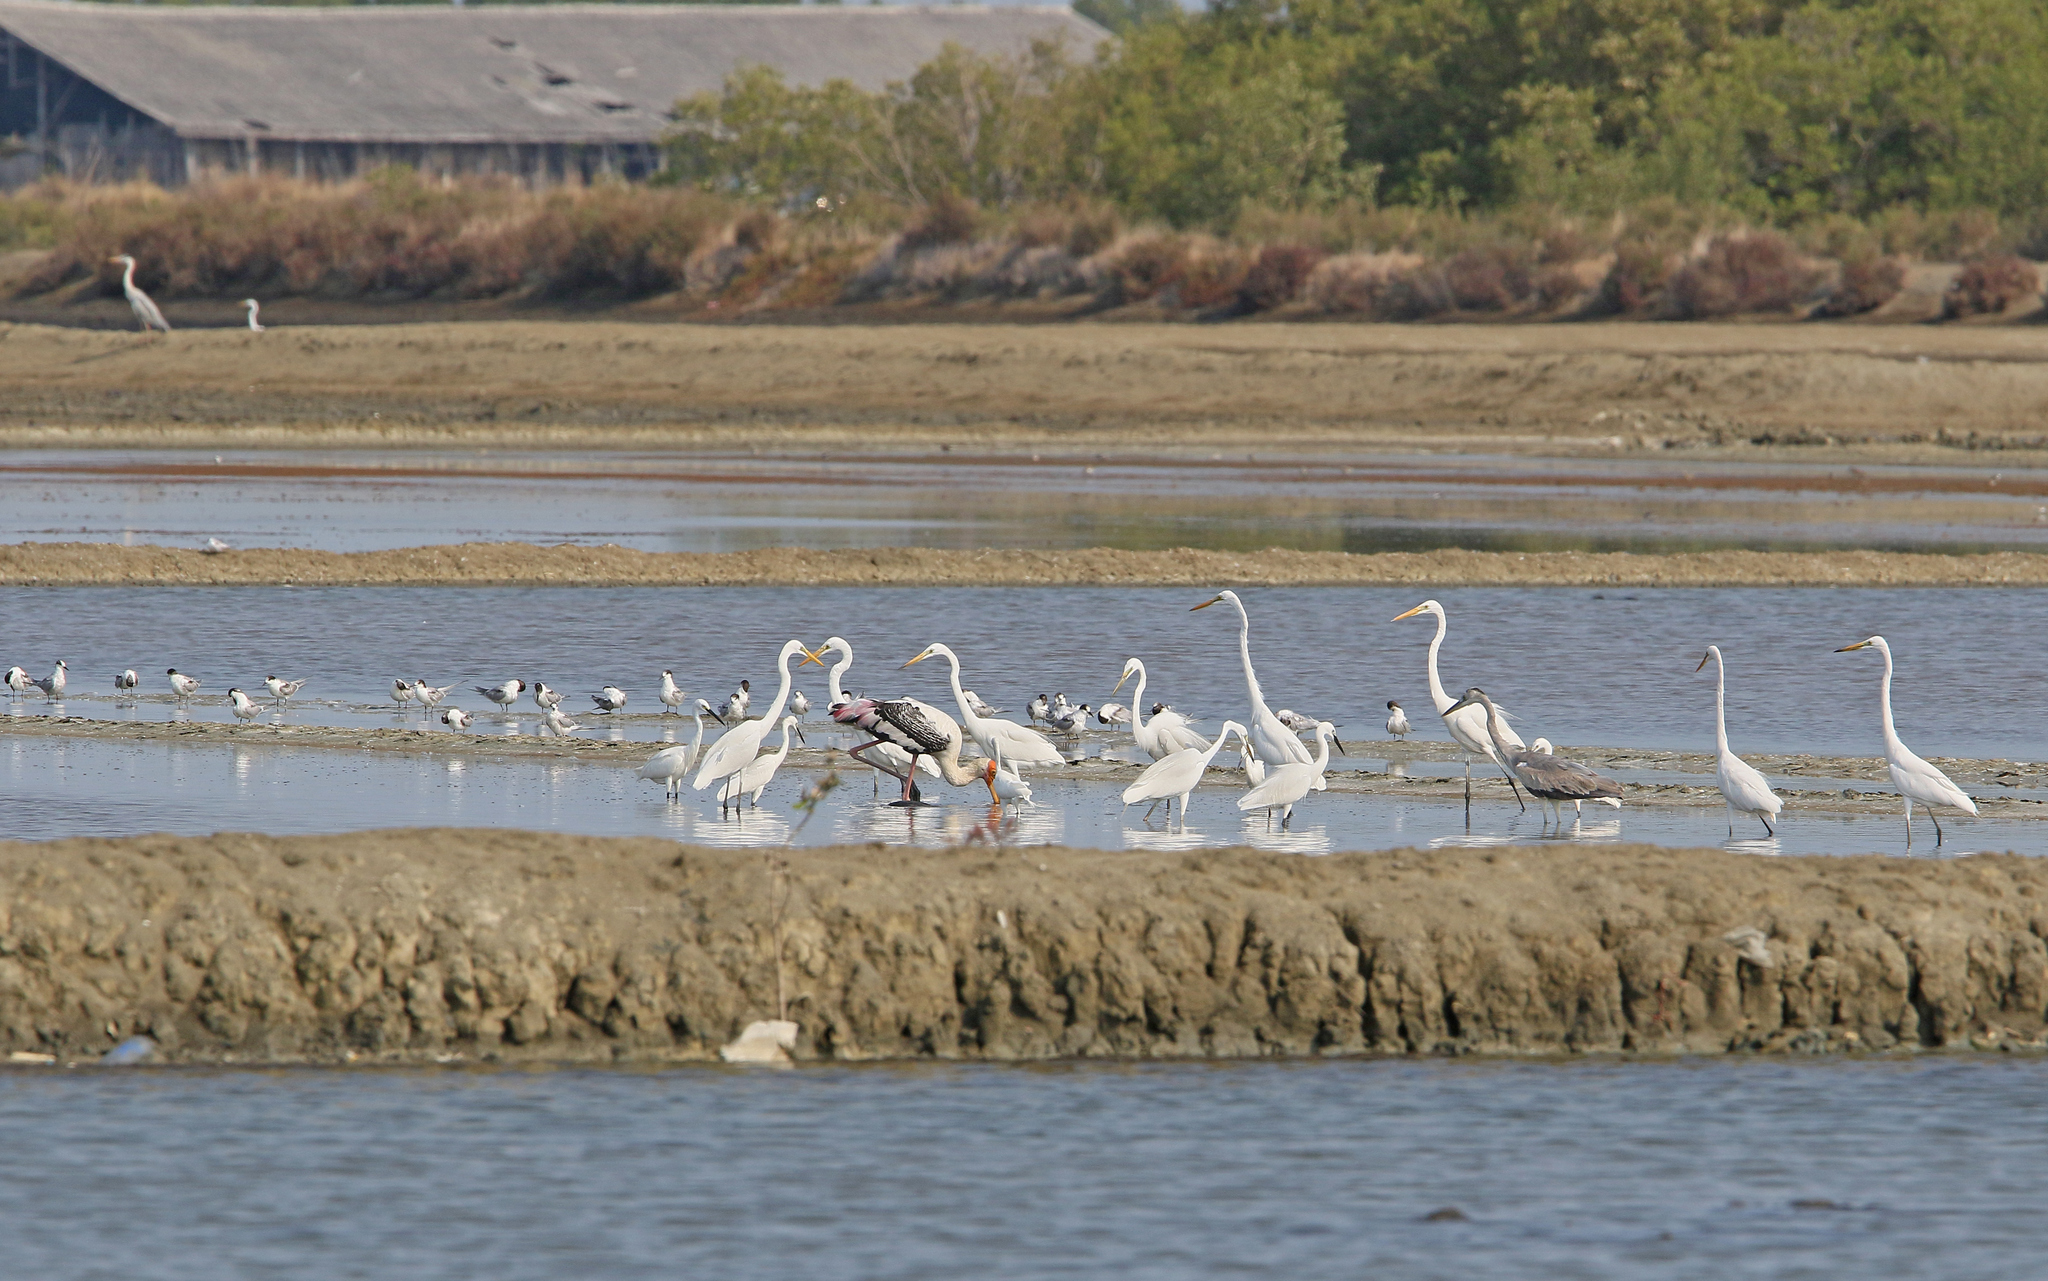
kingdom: Animalia
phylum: Chordata
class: Aves
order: Charadriiformes
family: Laridae
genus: Sterna
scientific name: Sterna hirundo
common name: Common tern
